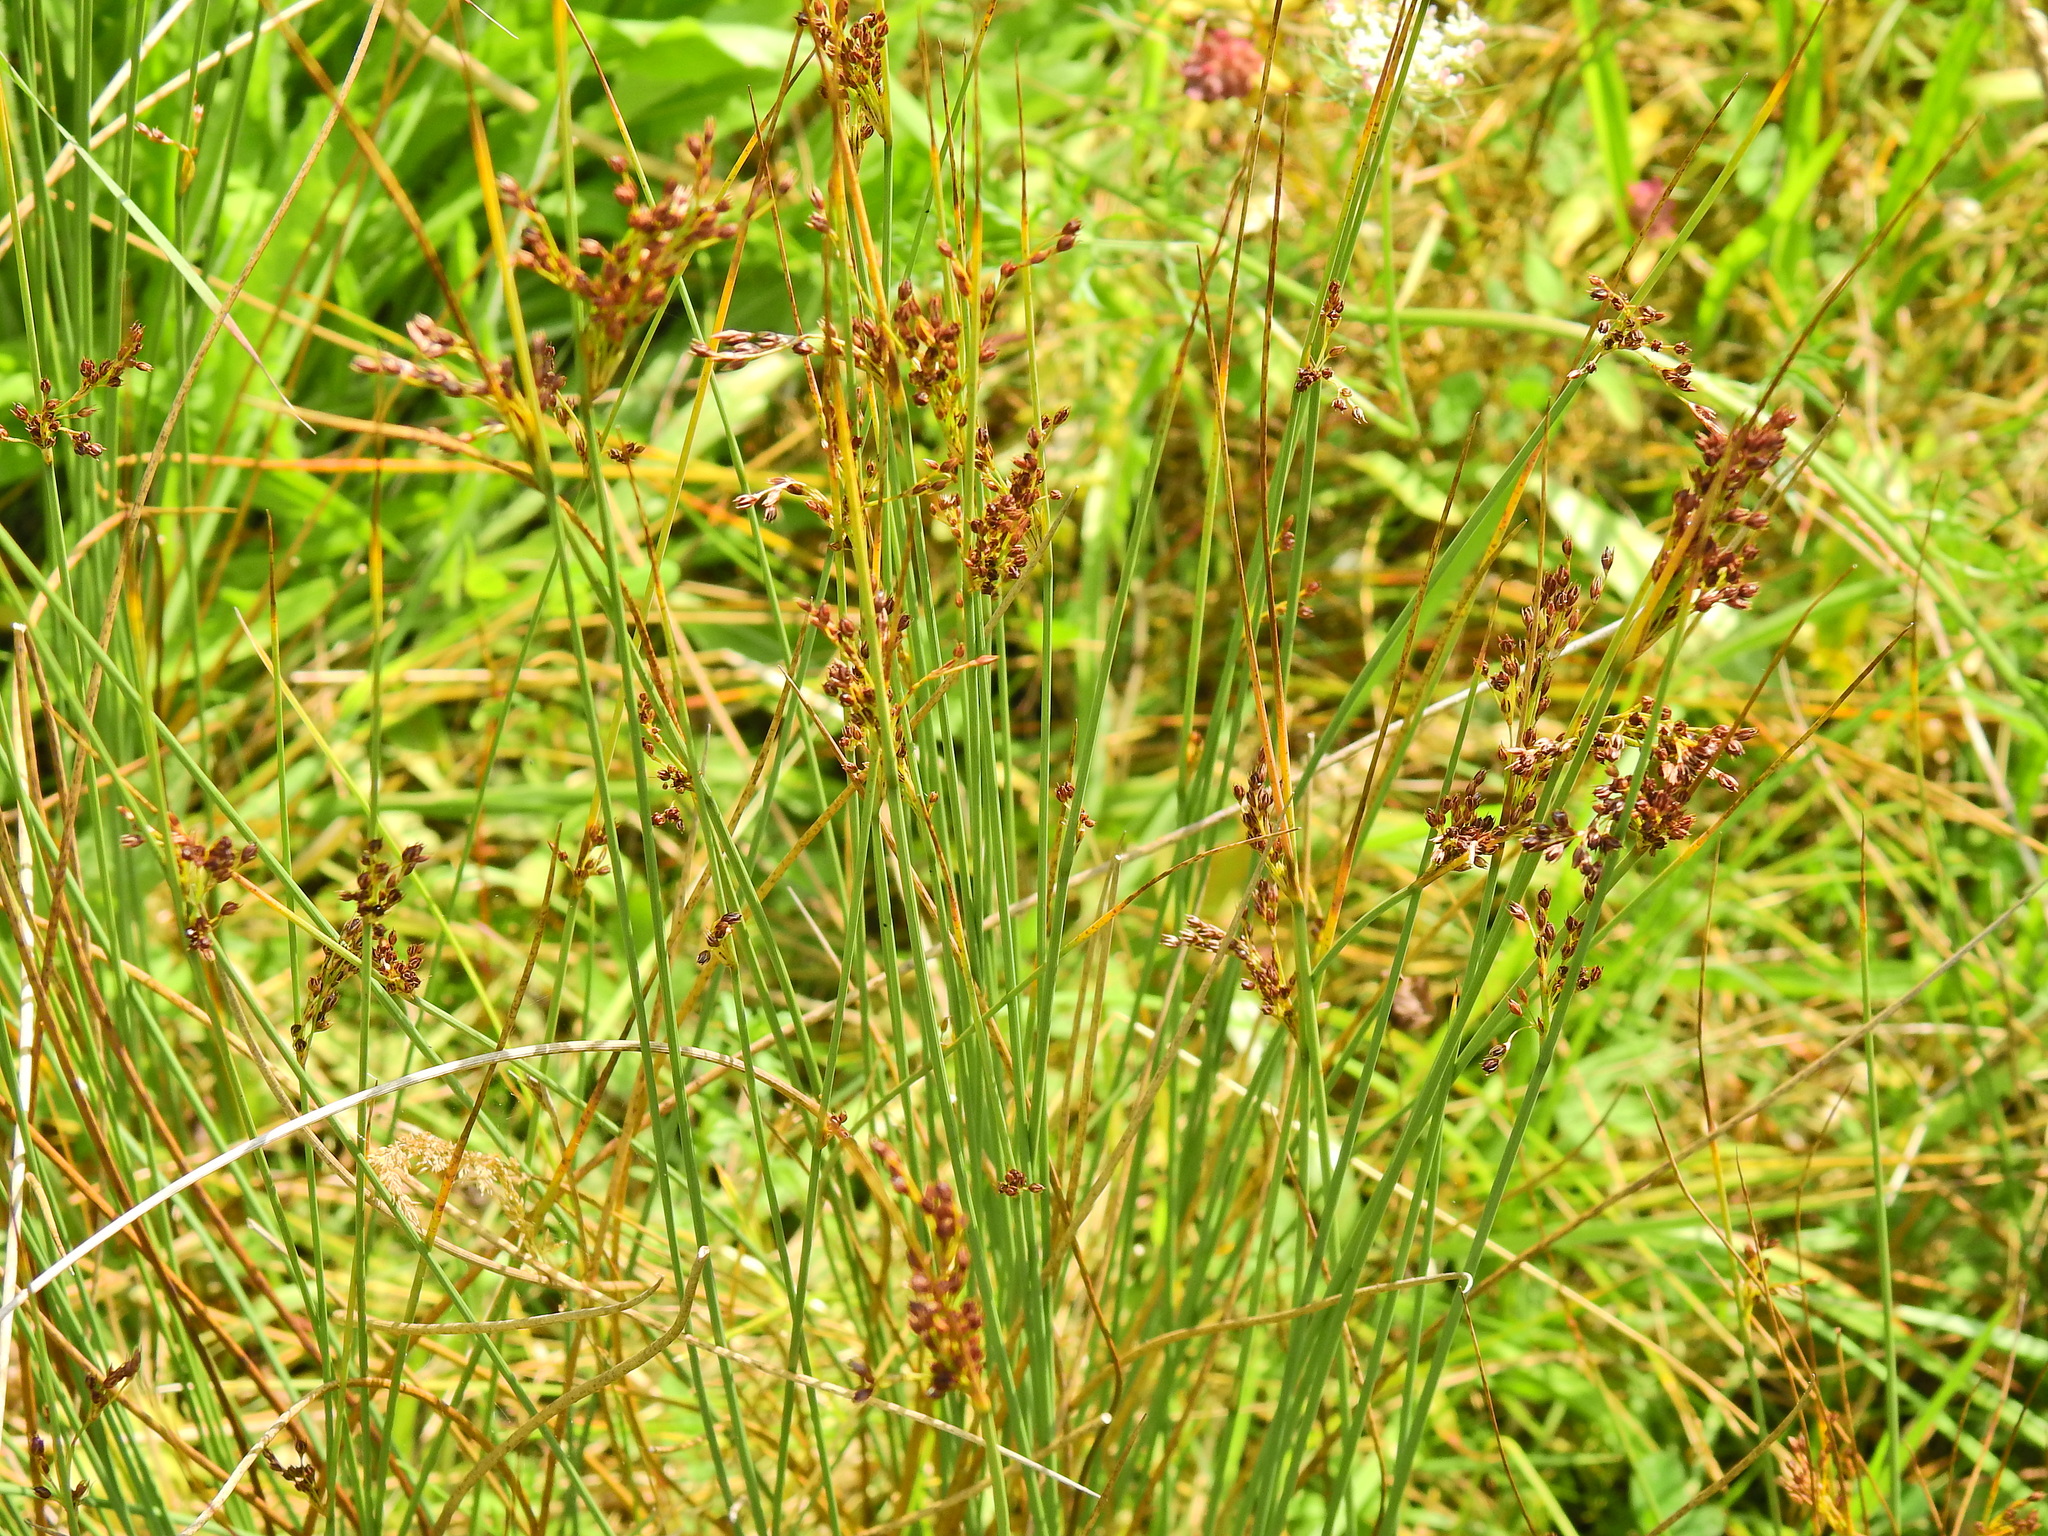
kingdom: Plantae
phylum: Tracheophyta
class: Liliopsida
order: Poales
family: Juncaceae
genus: Juncus
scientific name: Juncus inflexus
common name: Hard rush
